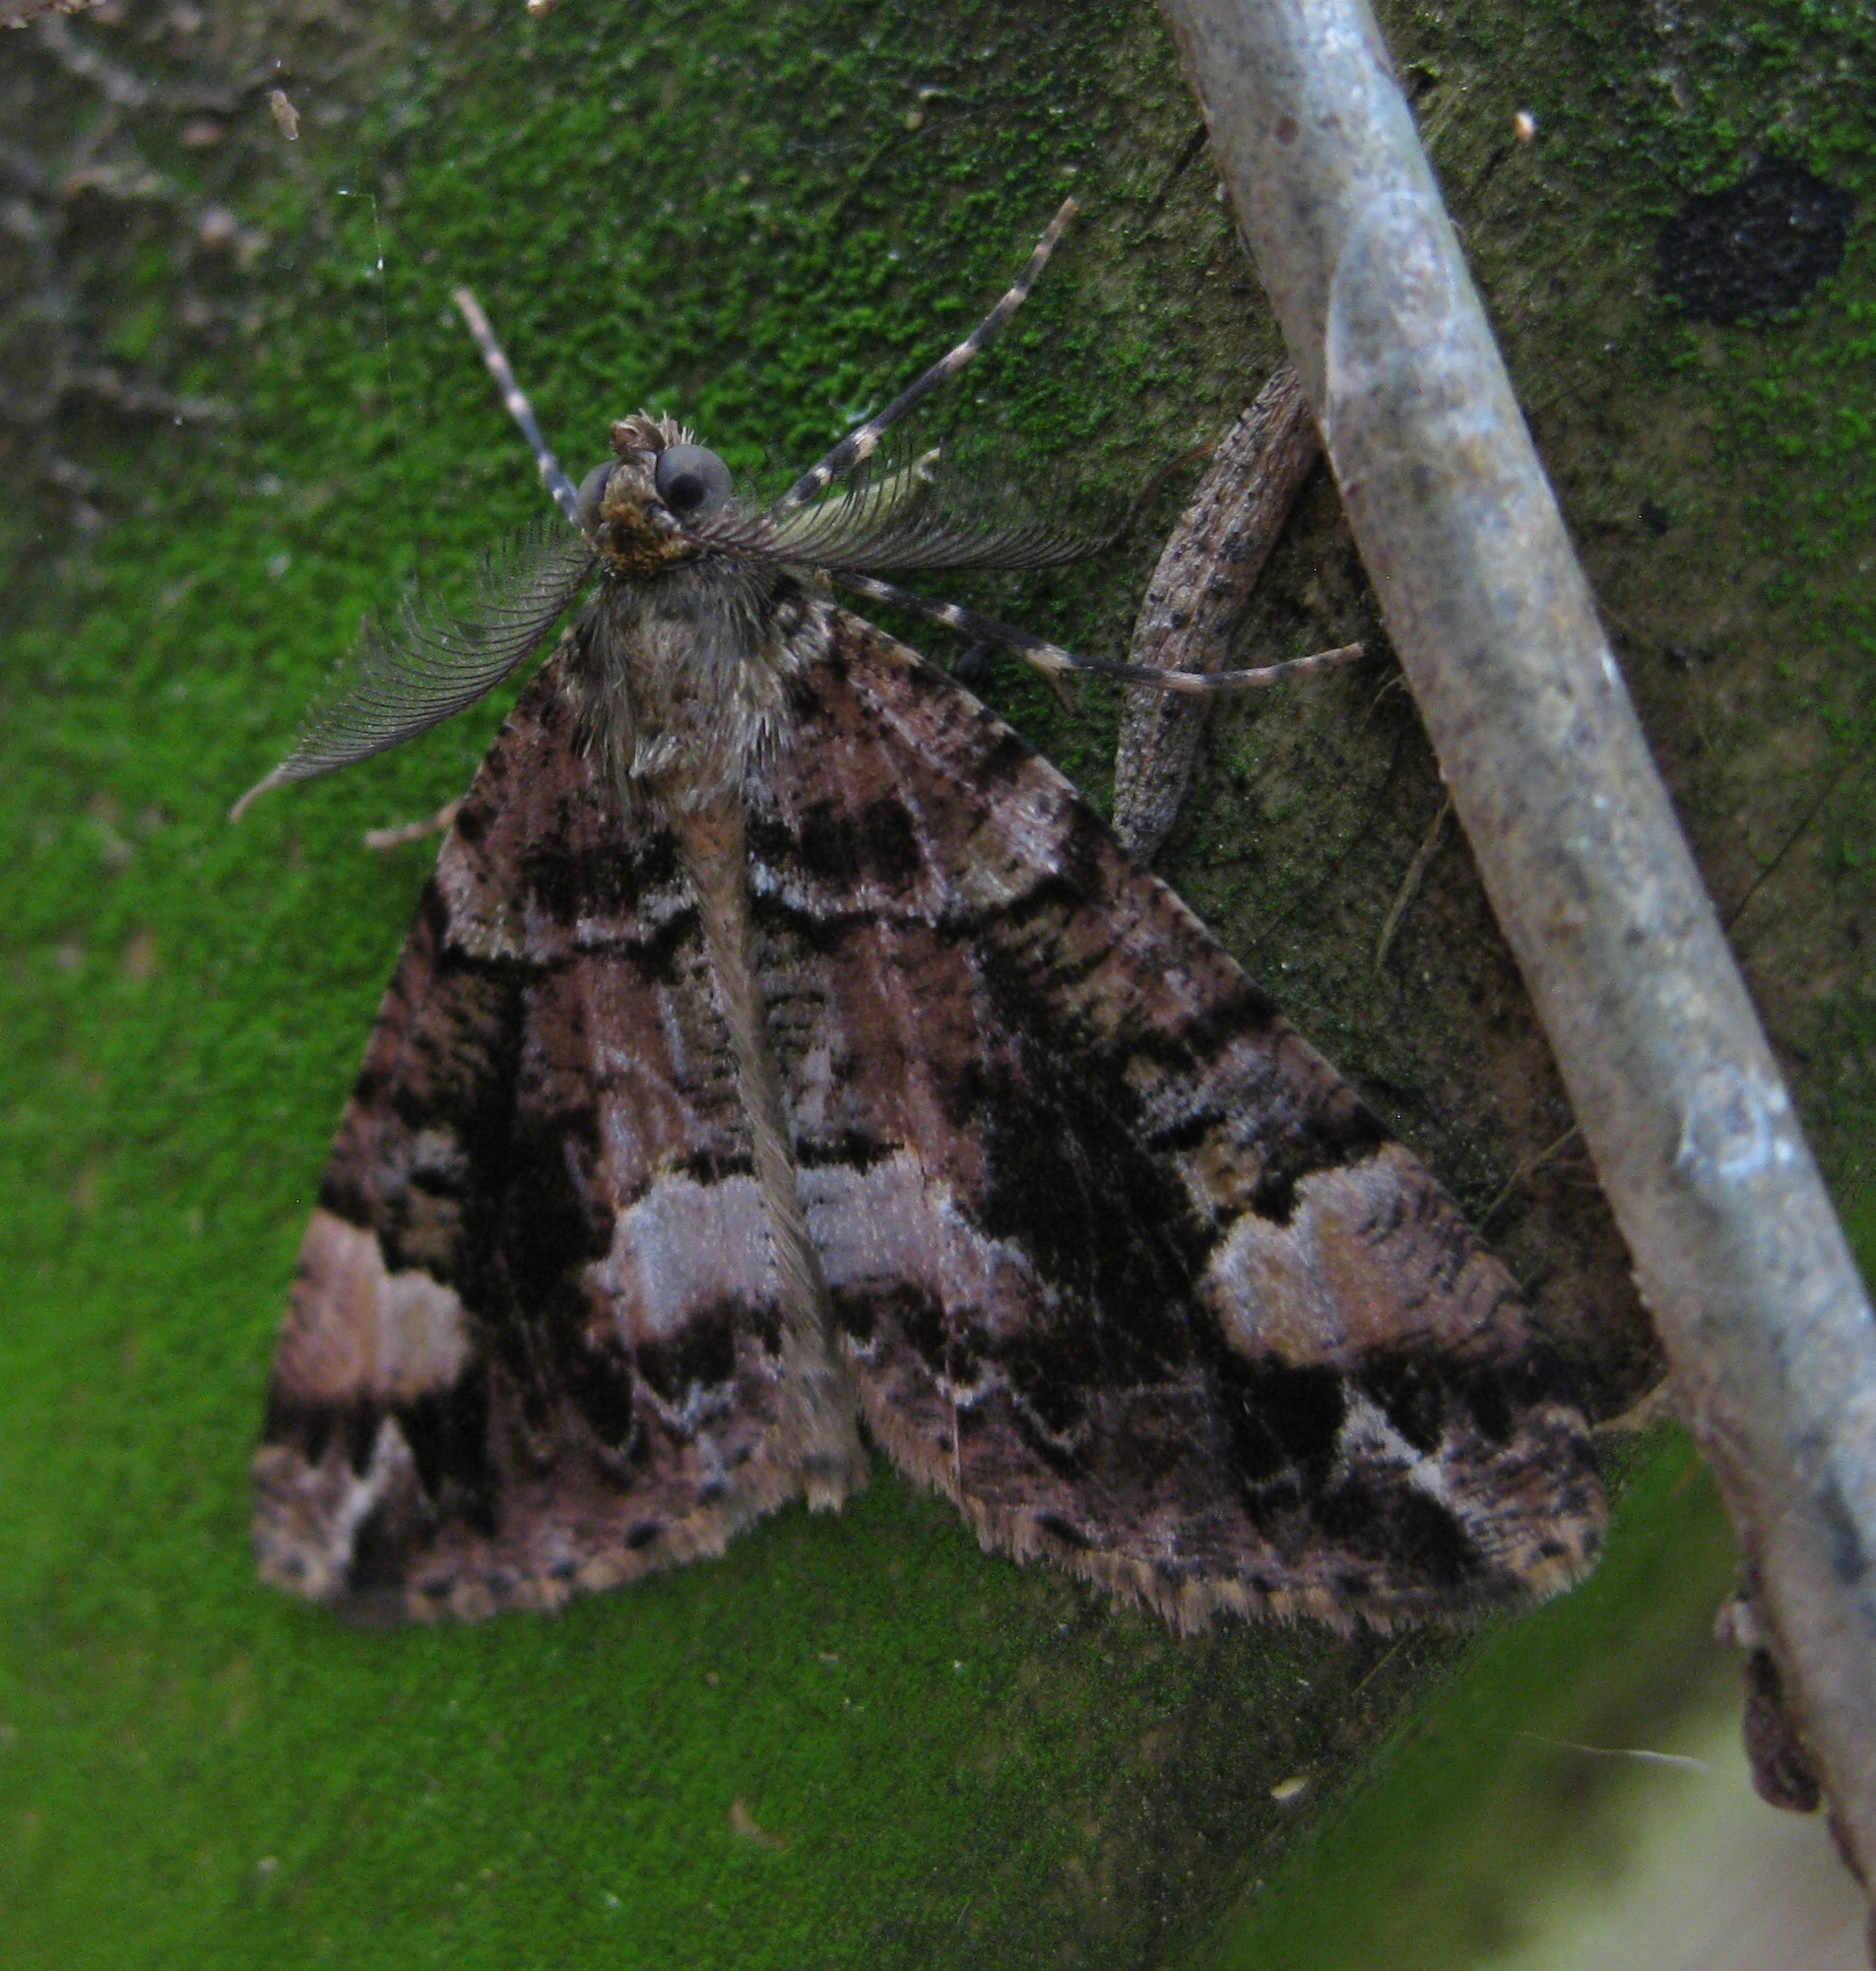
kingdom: Animalia
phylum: Arthropoda
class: Insecta
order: Lepidoptera
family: Geometridae
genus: Pseudocoremia
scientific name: Pseudocoremia productata
